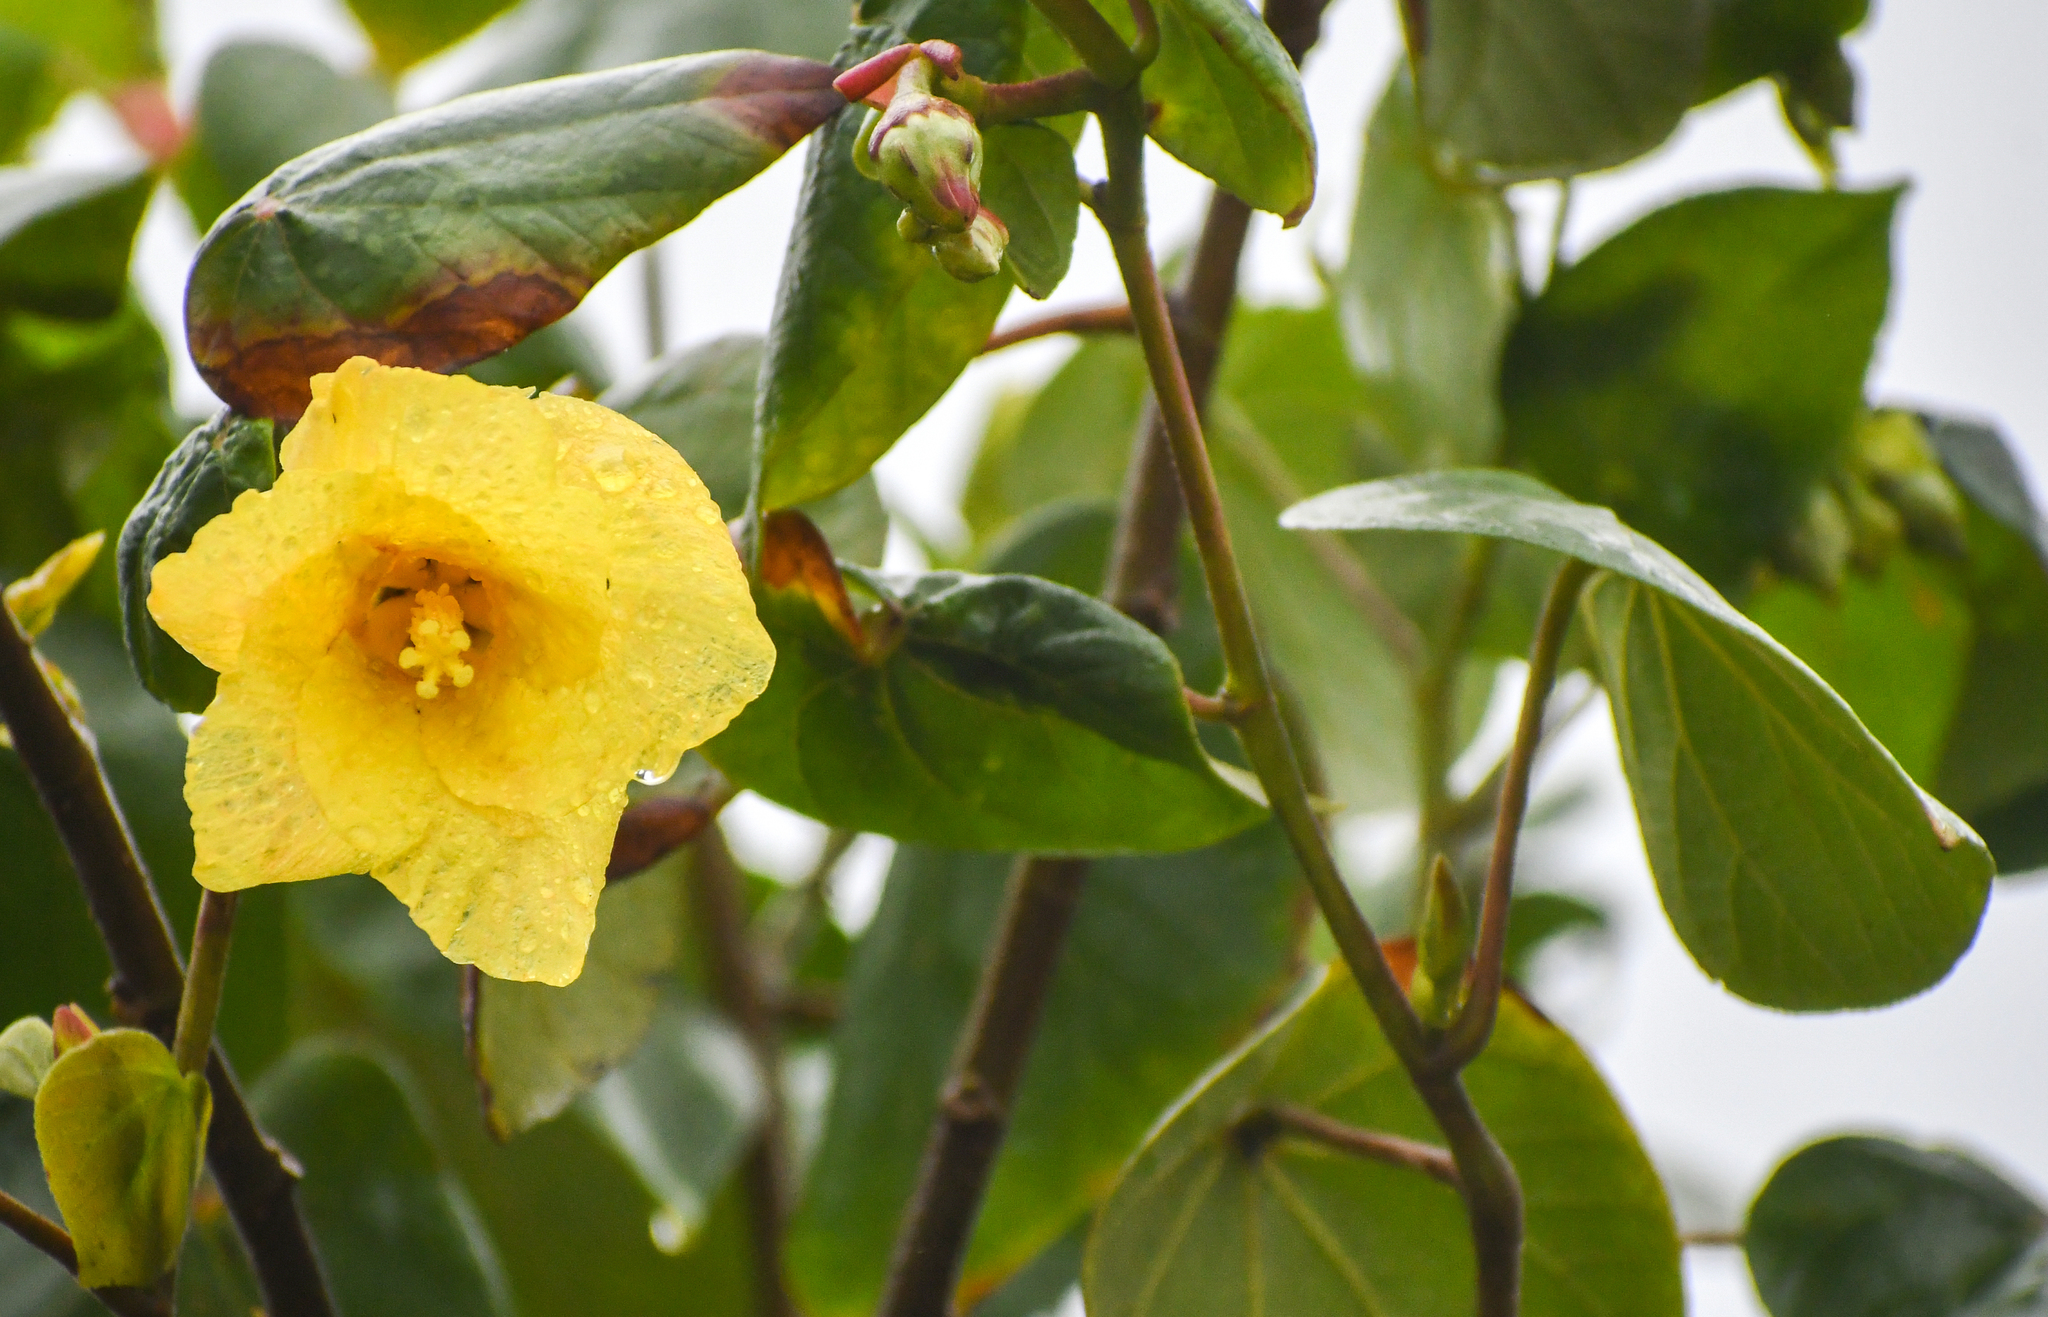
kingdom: Plantae
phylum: Tracheophyta
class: Magnoliopsida
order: Malvales
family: Malvaceae
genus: Talipariti
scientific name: Talipariti tiliaceum
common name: Sea hibiscus
